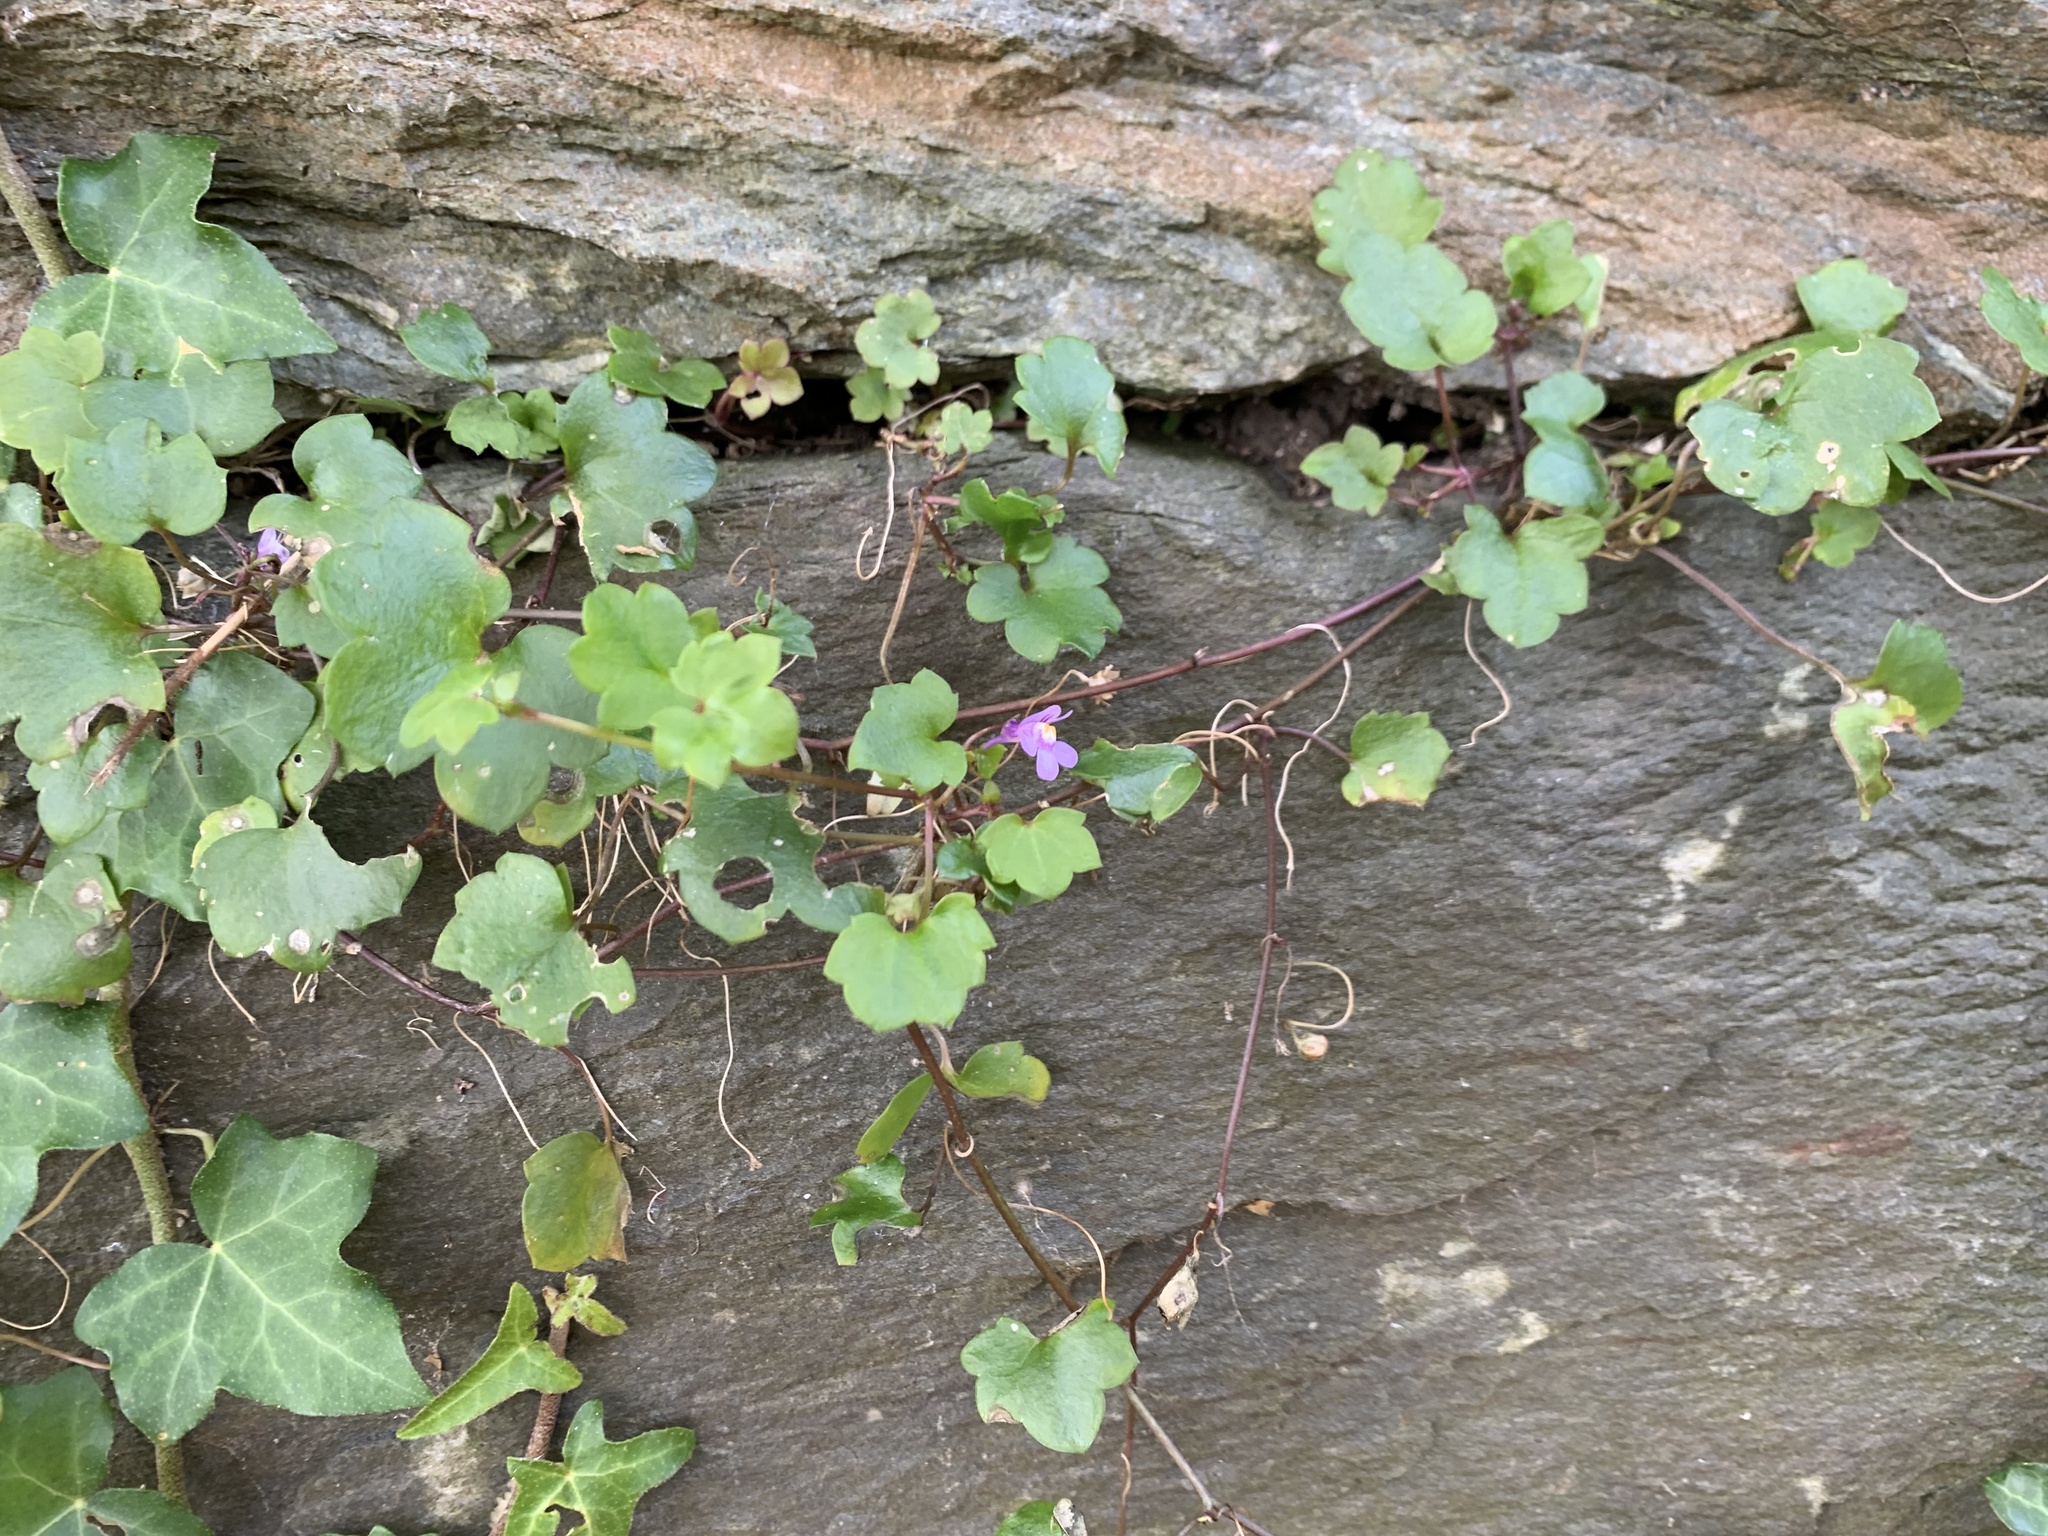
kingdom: Plantae
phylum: Tracheophyta
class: Magnoliopsida
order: Lamiales
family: Plantaginaceae
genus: Cymbalaria
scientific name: Cymbalaria muralis
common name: Ivy-leaved toadflax
